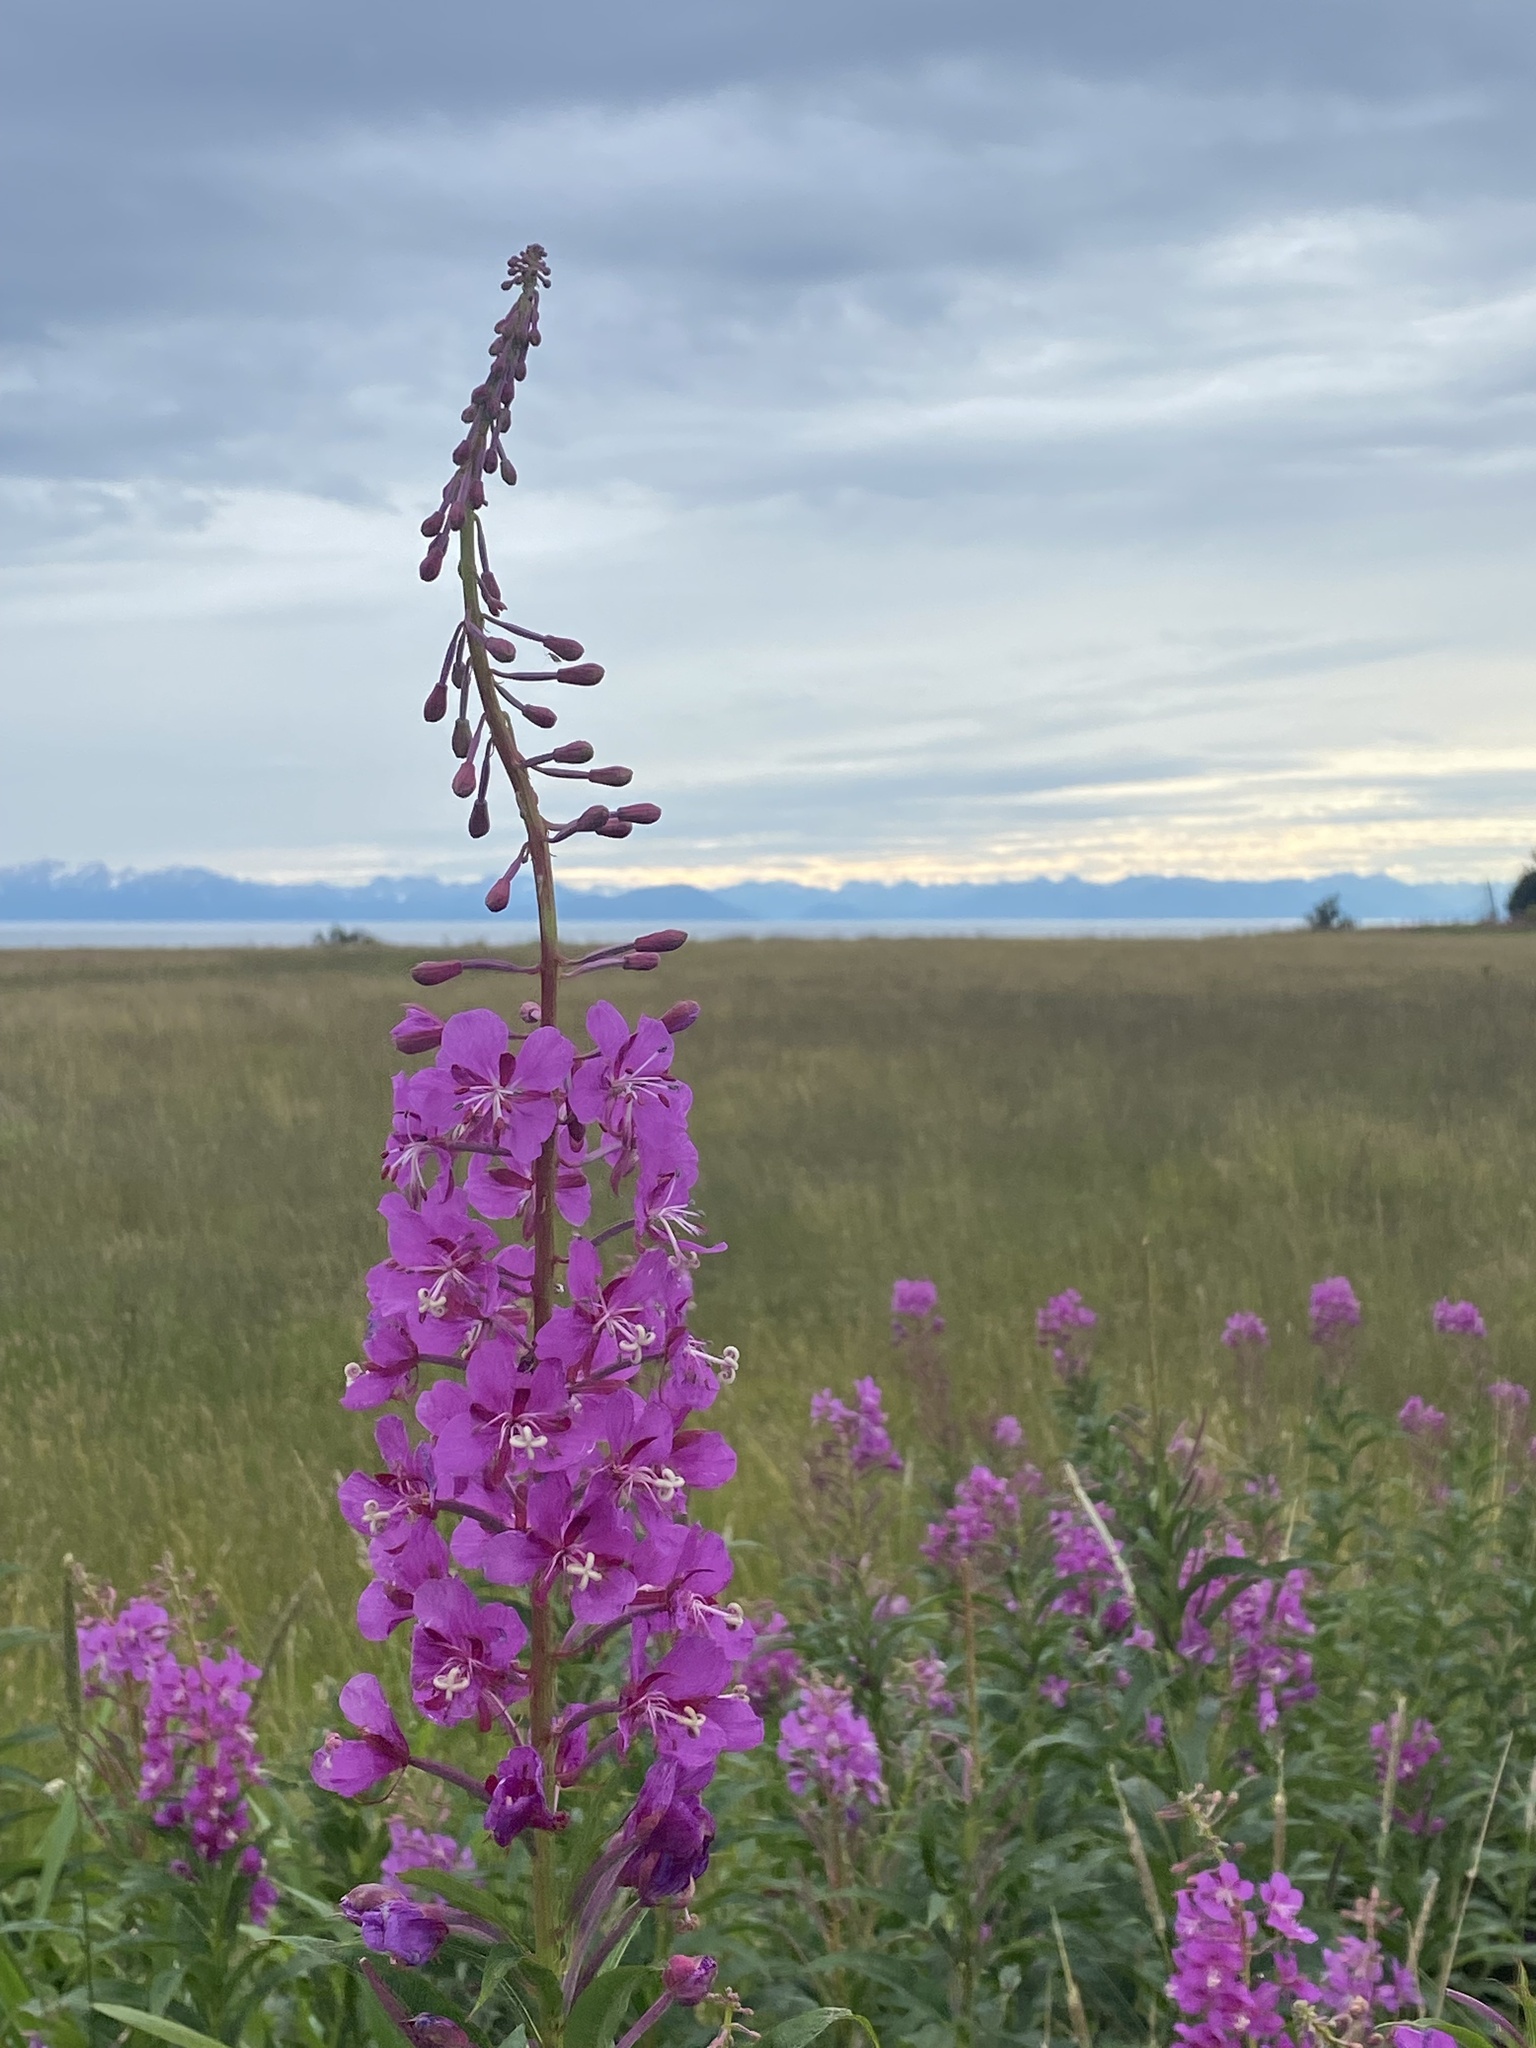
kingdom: Plantae
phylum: Tracheophyta
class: Magnoliopsida
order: Myrtales
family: Onagraceae
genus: Chamaenerion
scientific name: Chamaenerion angustifolium
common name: Fireweed
